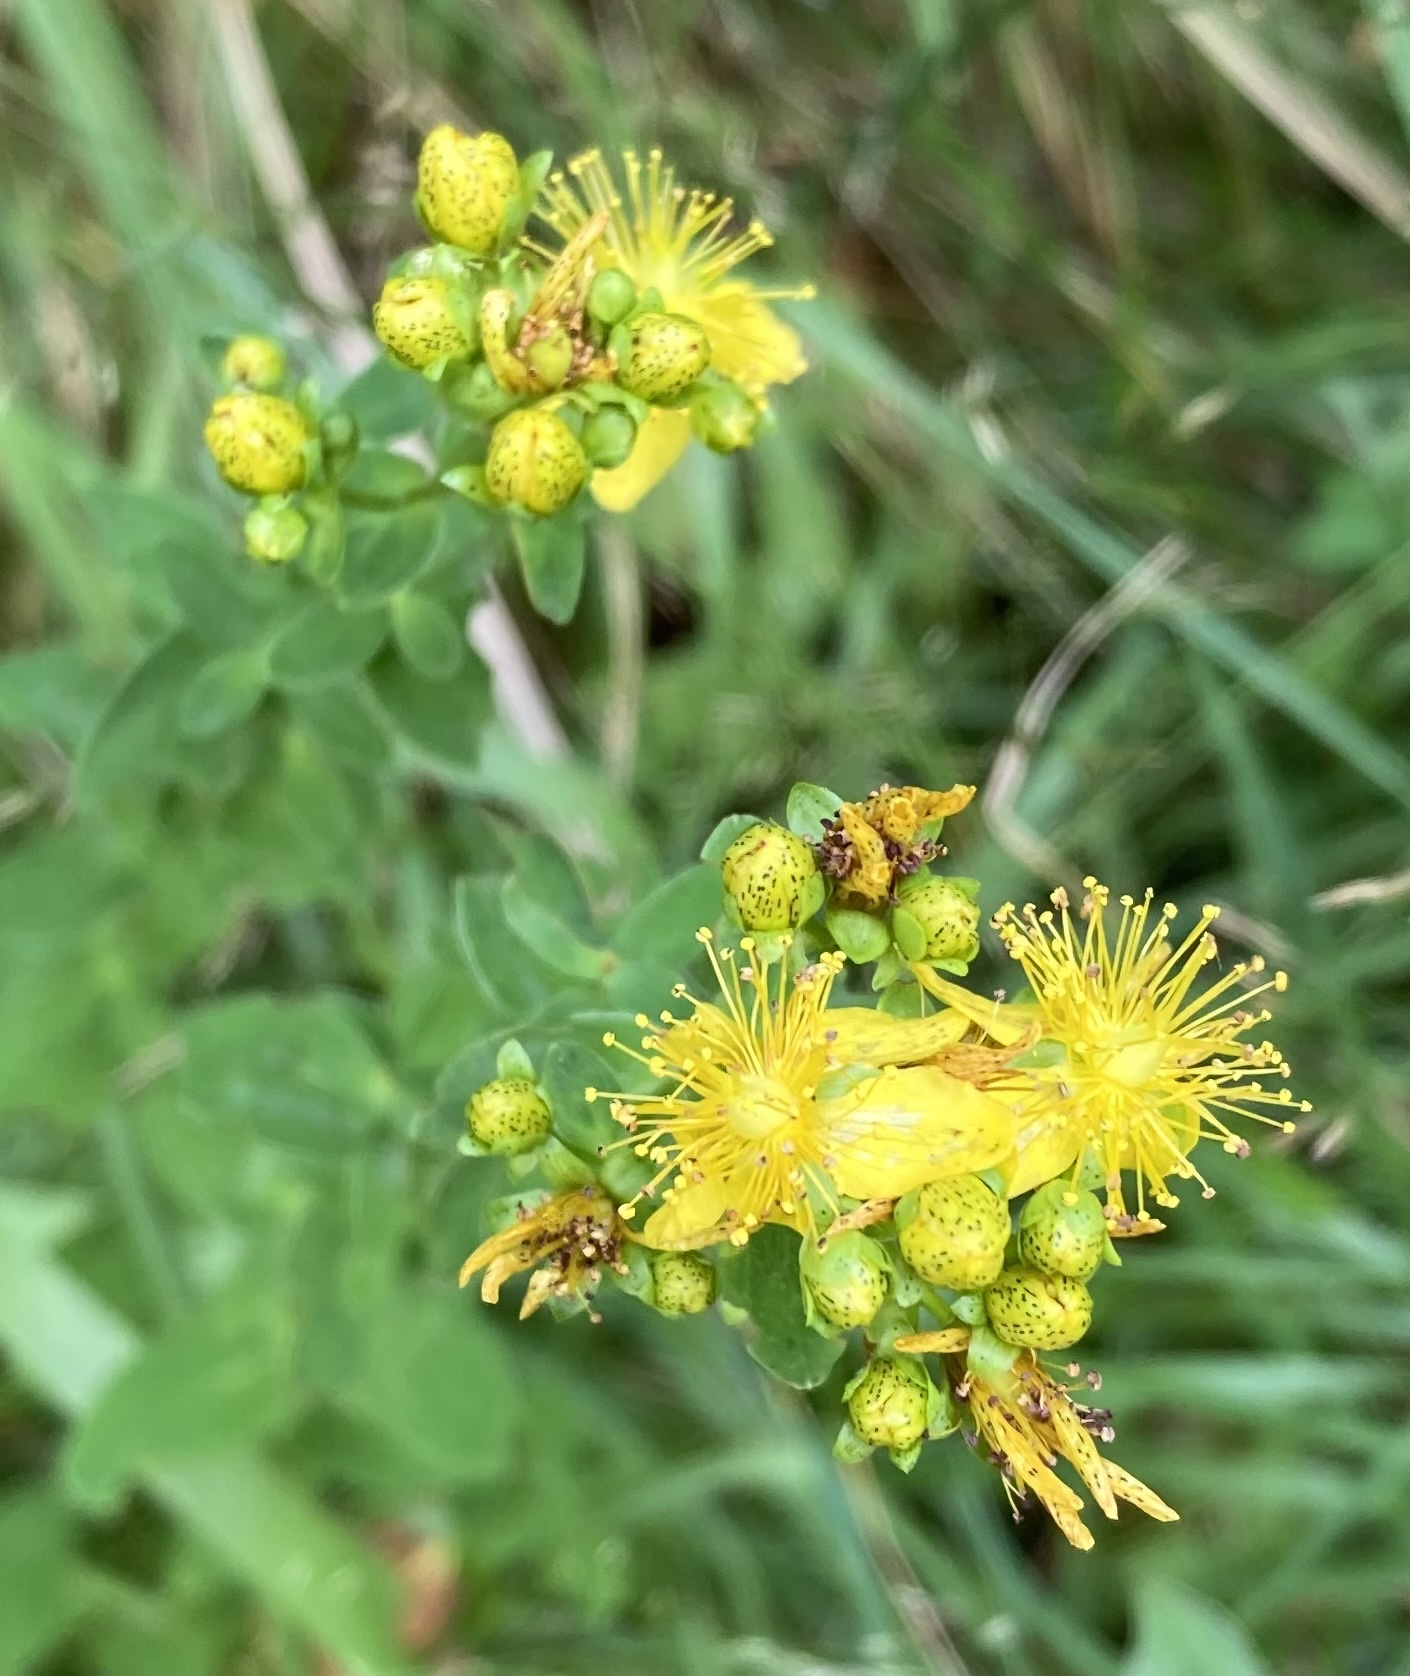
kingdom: Plantae
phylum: Tracheophyta
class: Magnoliopsida
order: Malpighiales
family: Hypericaceae
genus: Hypericum
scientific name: Hypericum maculatum
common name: Imperforate st. john's-wort
